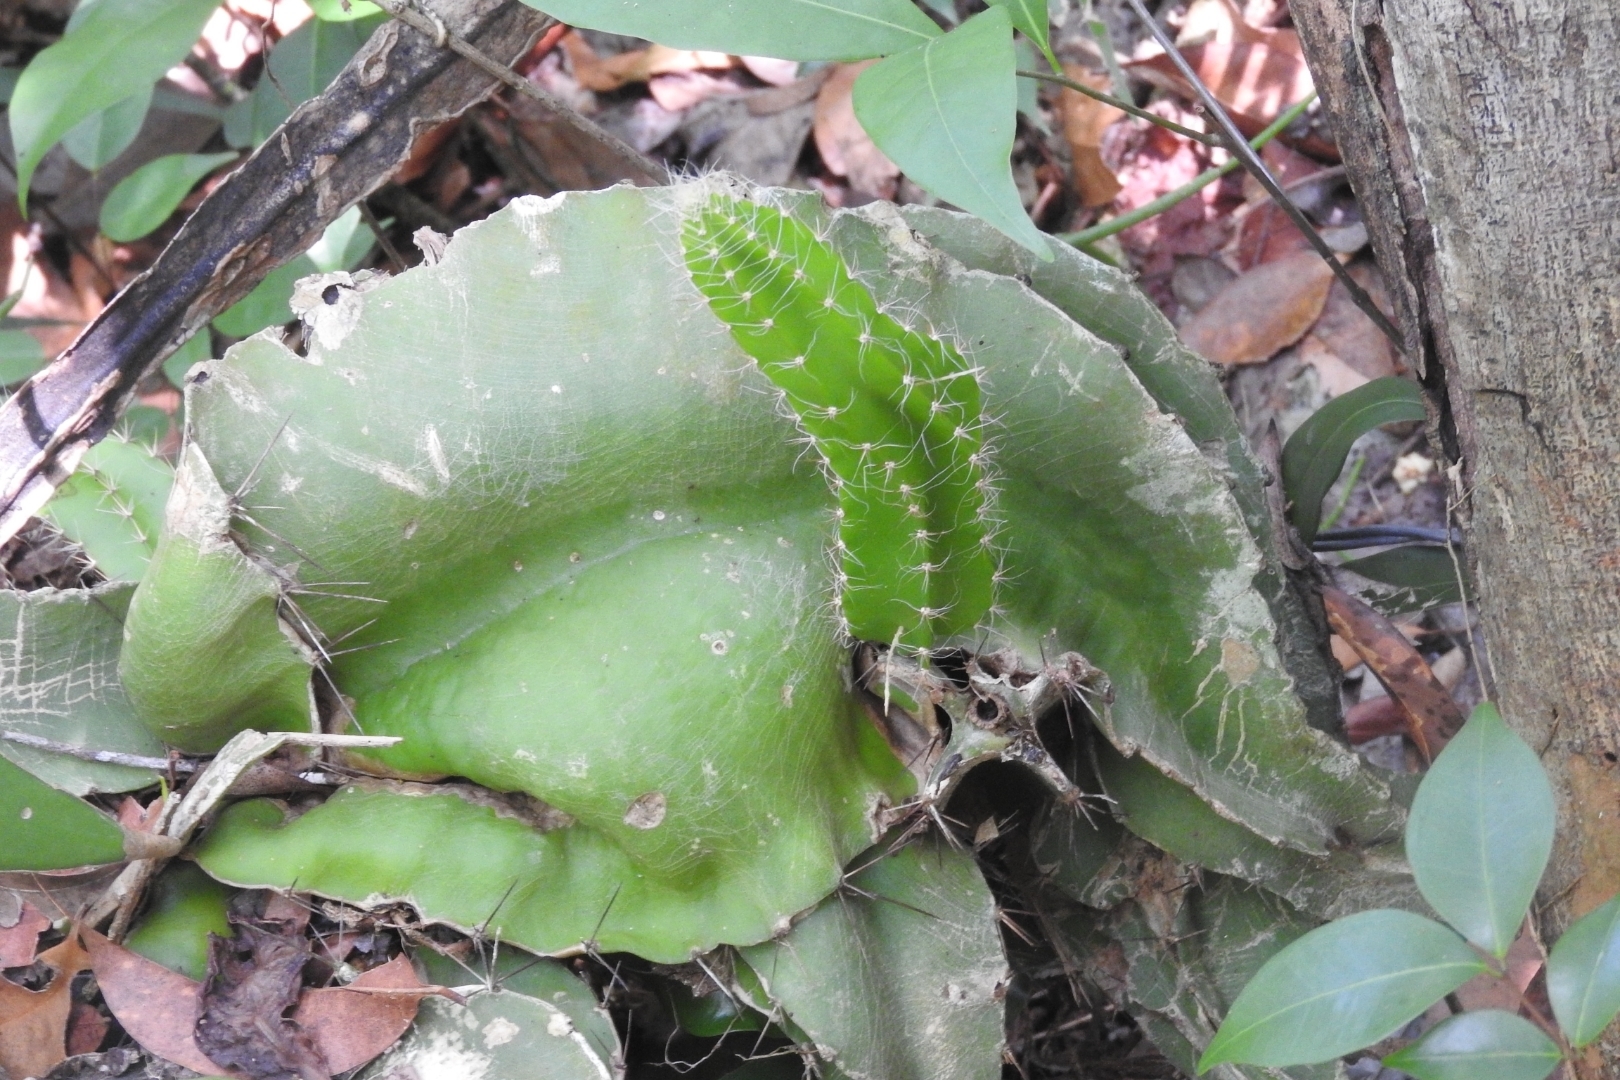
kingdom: Plantae
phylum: Tracheophyta
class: Magnoliopsida
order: Caryophyllales
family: Cactaceae
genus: Deamia
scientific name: Deamia testudo
